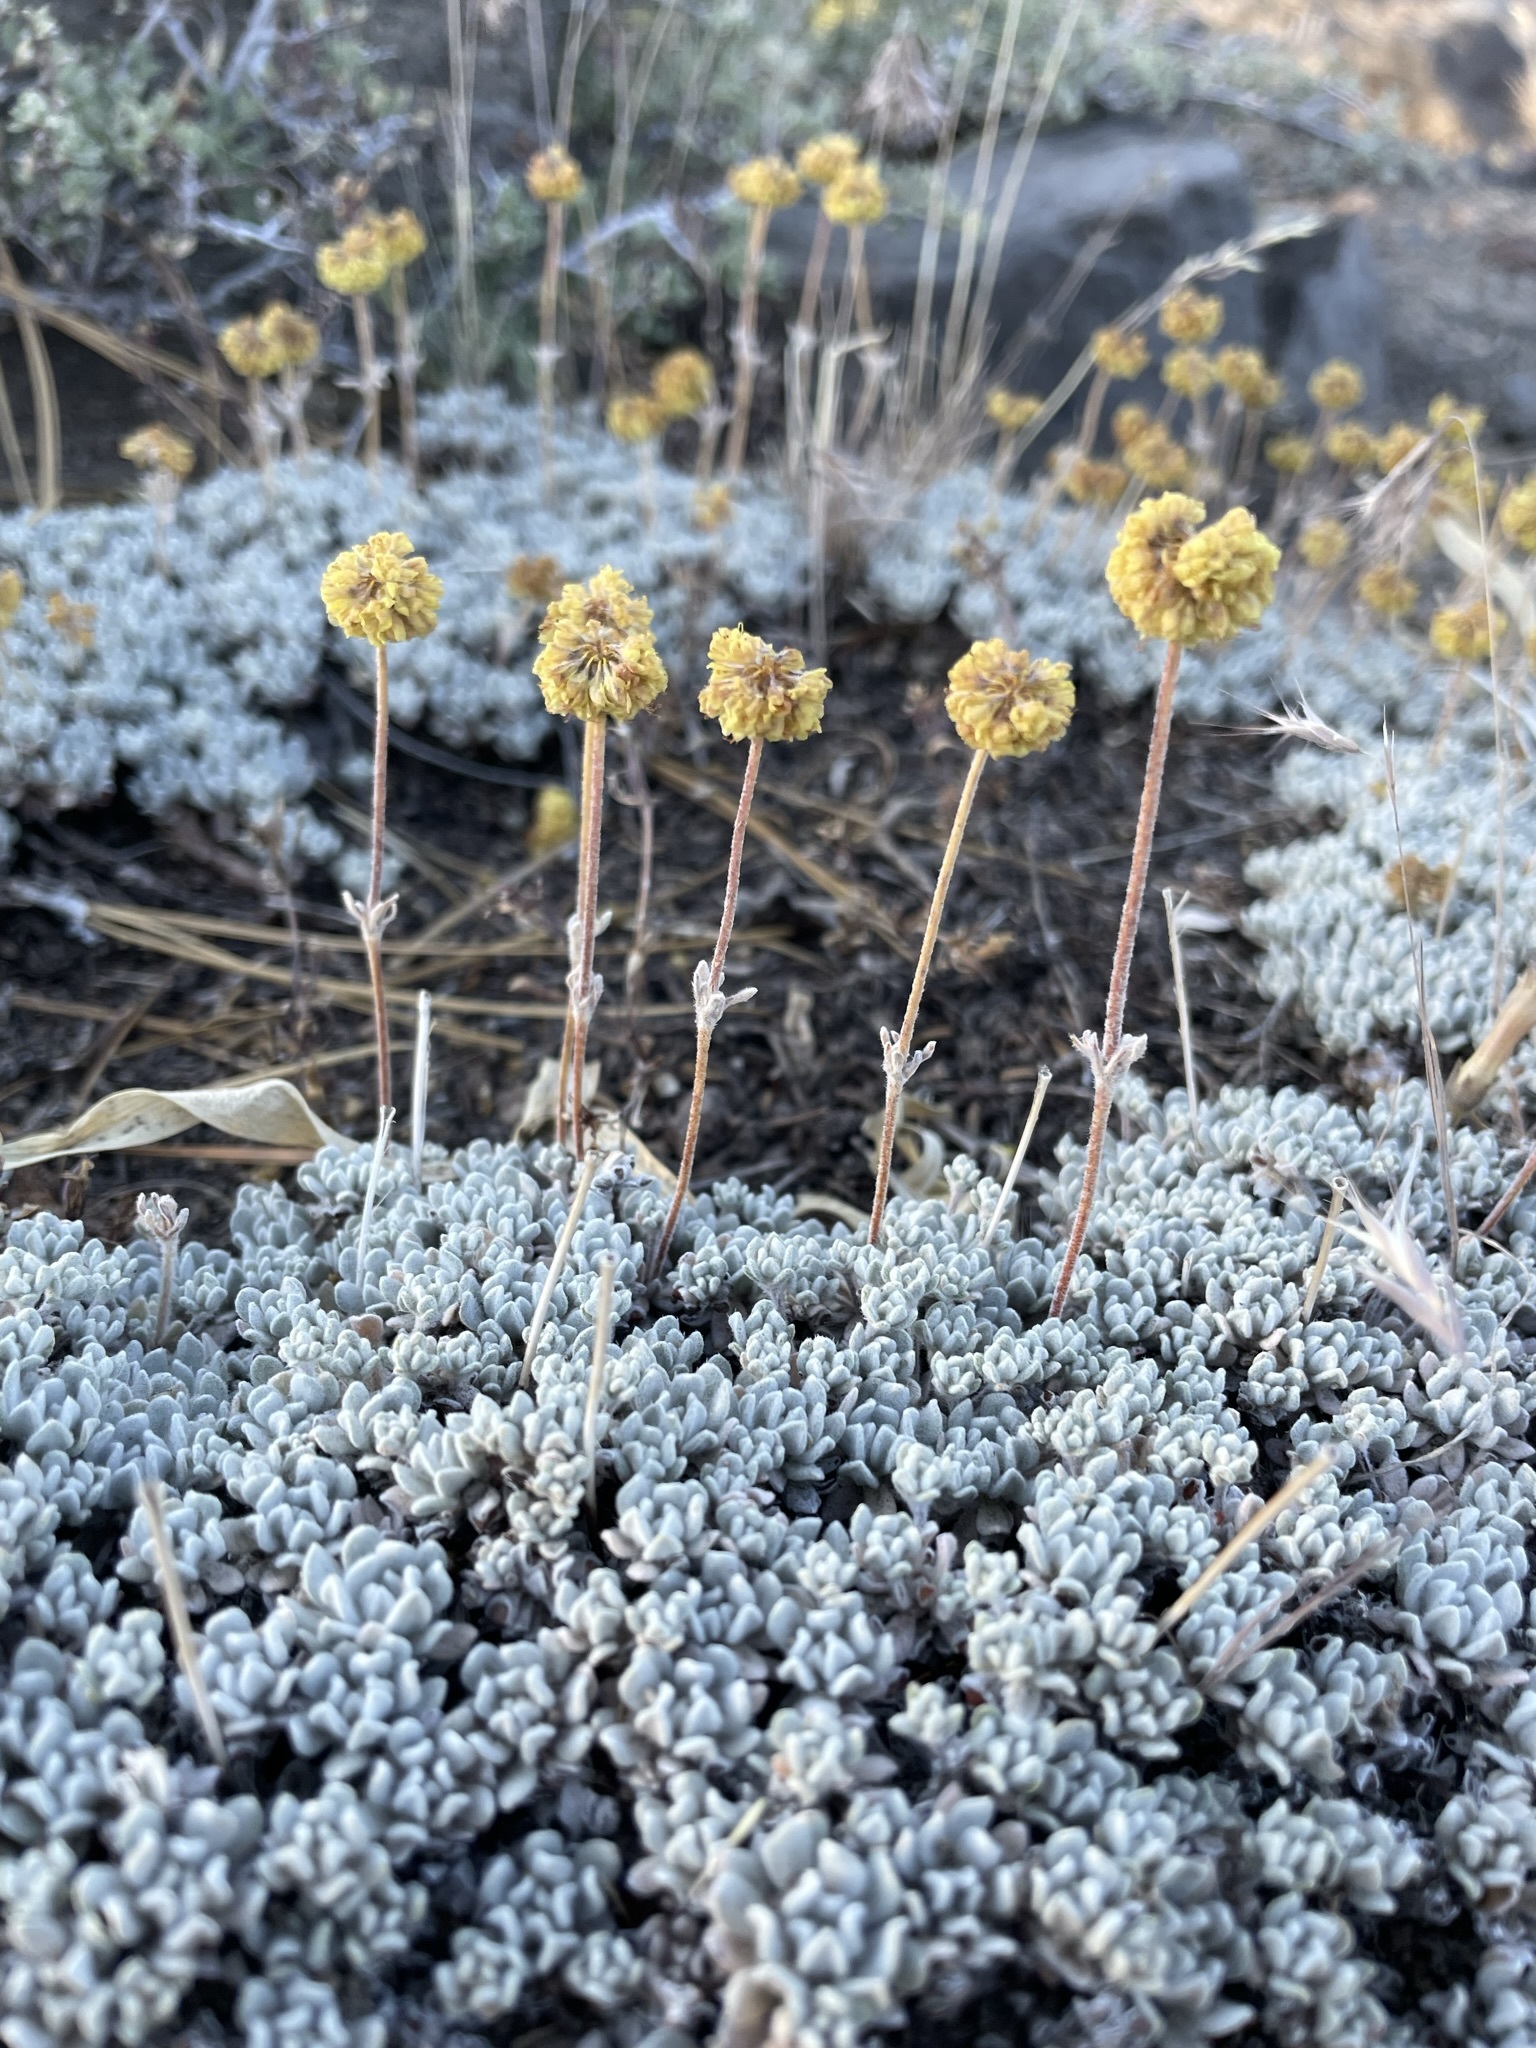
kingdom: Plantae
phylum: Tracheophyta
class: Magnoliopsida
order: Caryophyllales
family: Polygonaceae
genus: Eriogonum
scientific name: Eriogonum douglasii
